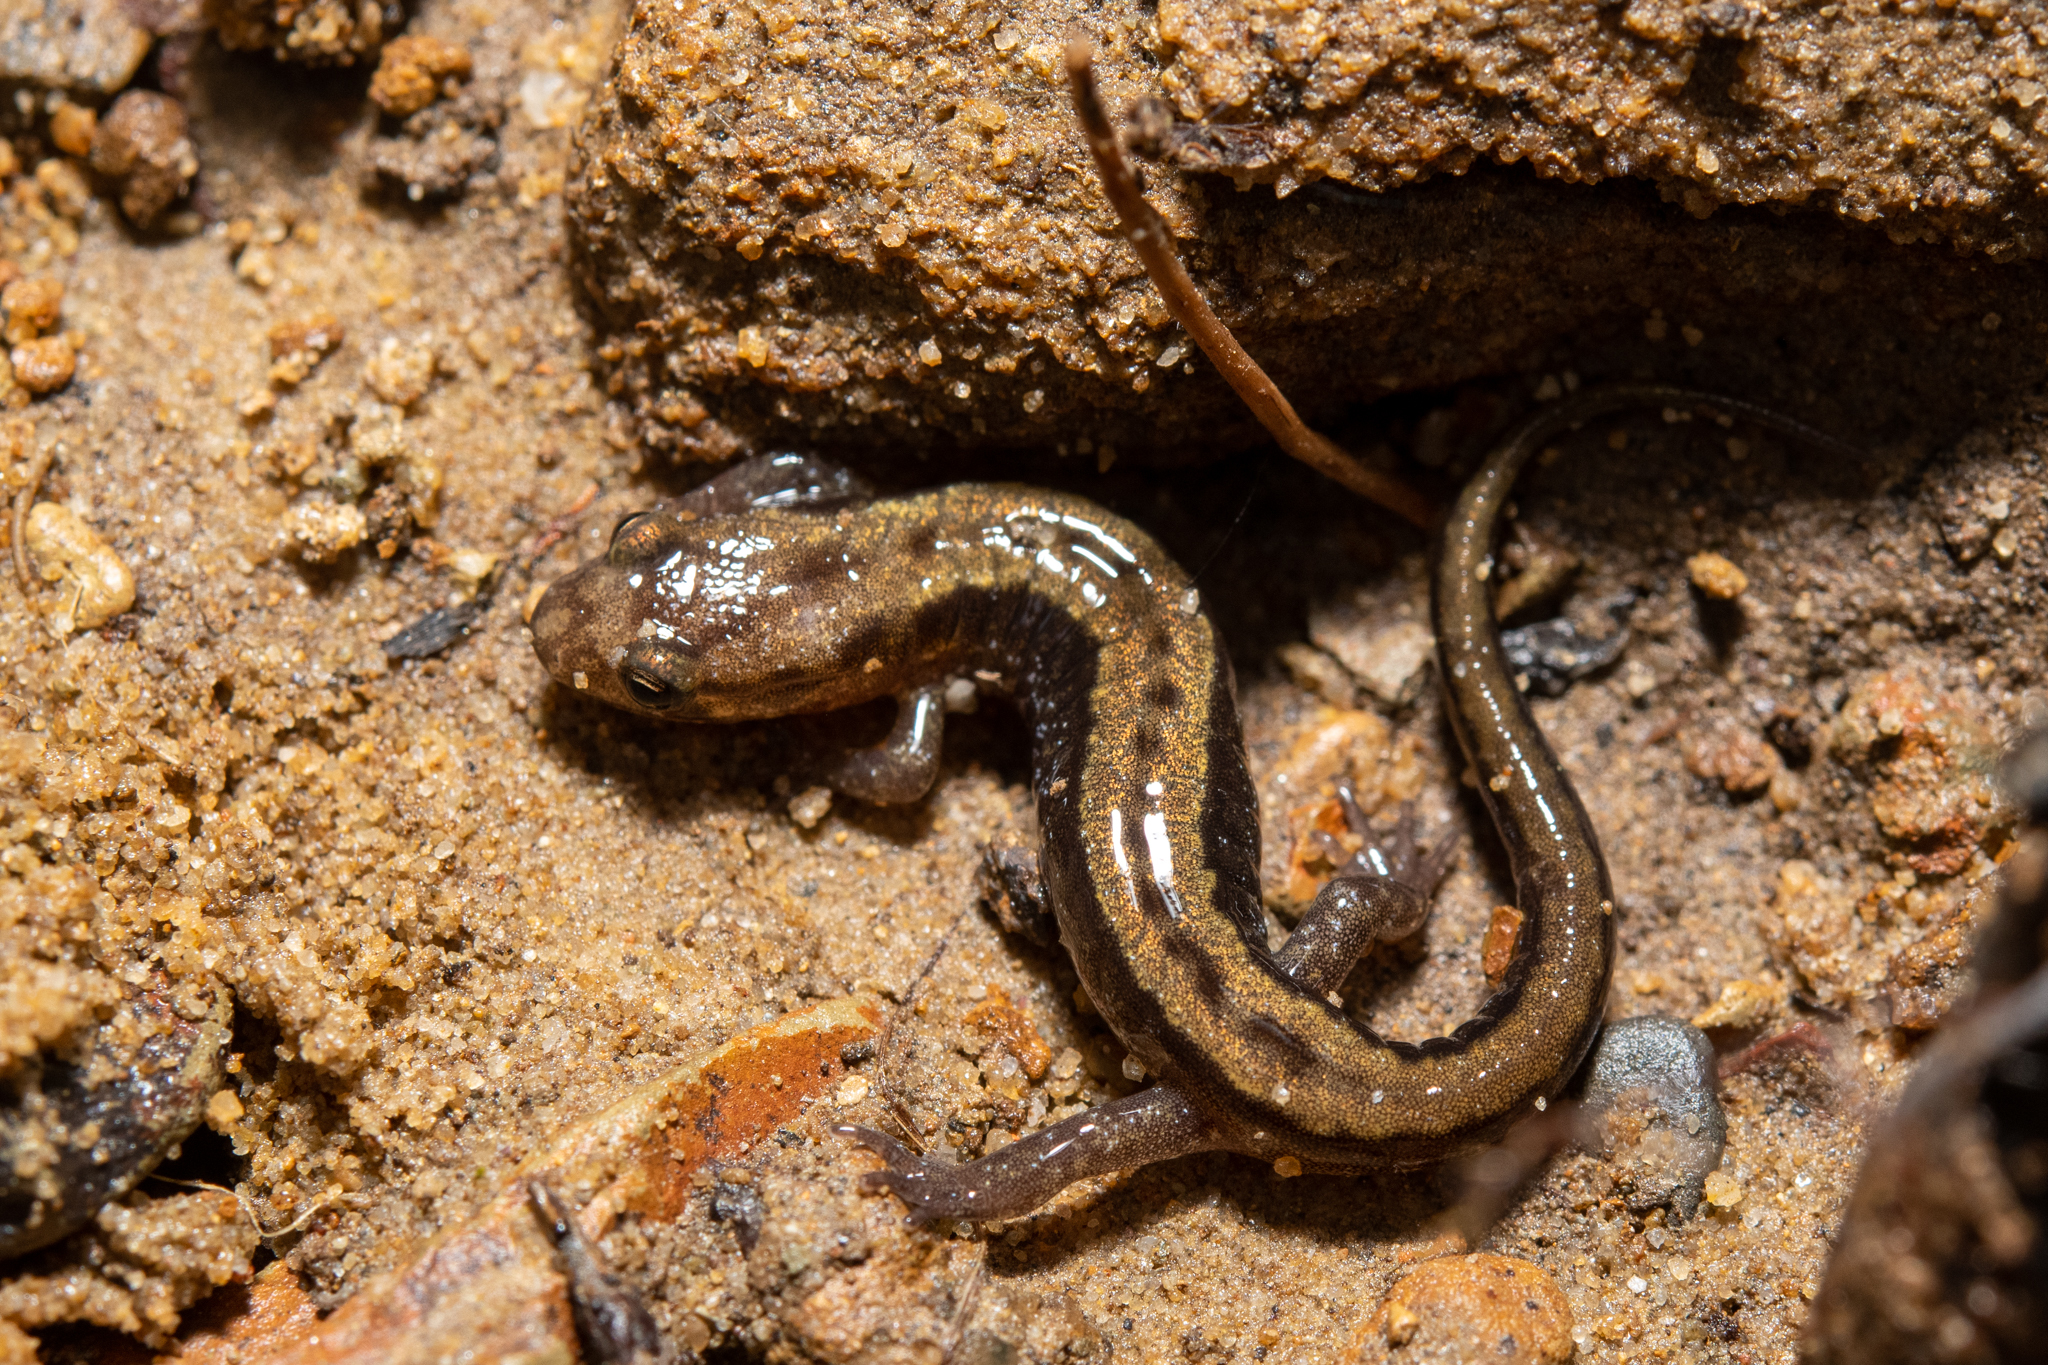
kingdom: Animalia
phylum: Chordata
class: Amphibia
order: Caudata
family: Plethodontidae
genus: Desmognathus
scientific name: Desmognathus ochrophaeus
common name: Allegheny mountain dusky salamander
